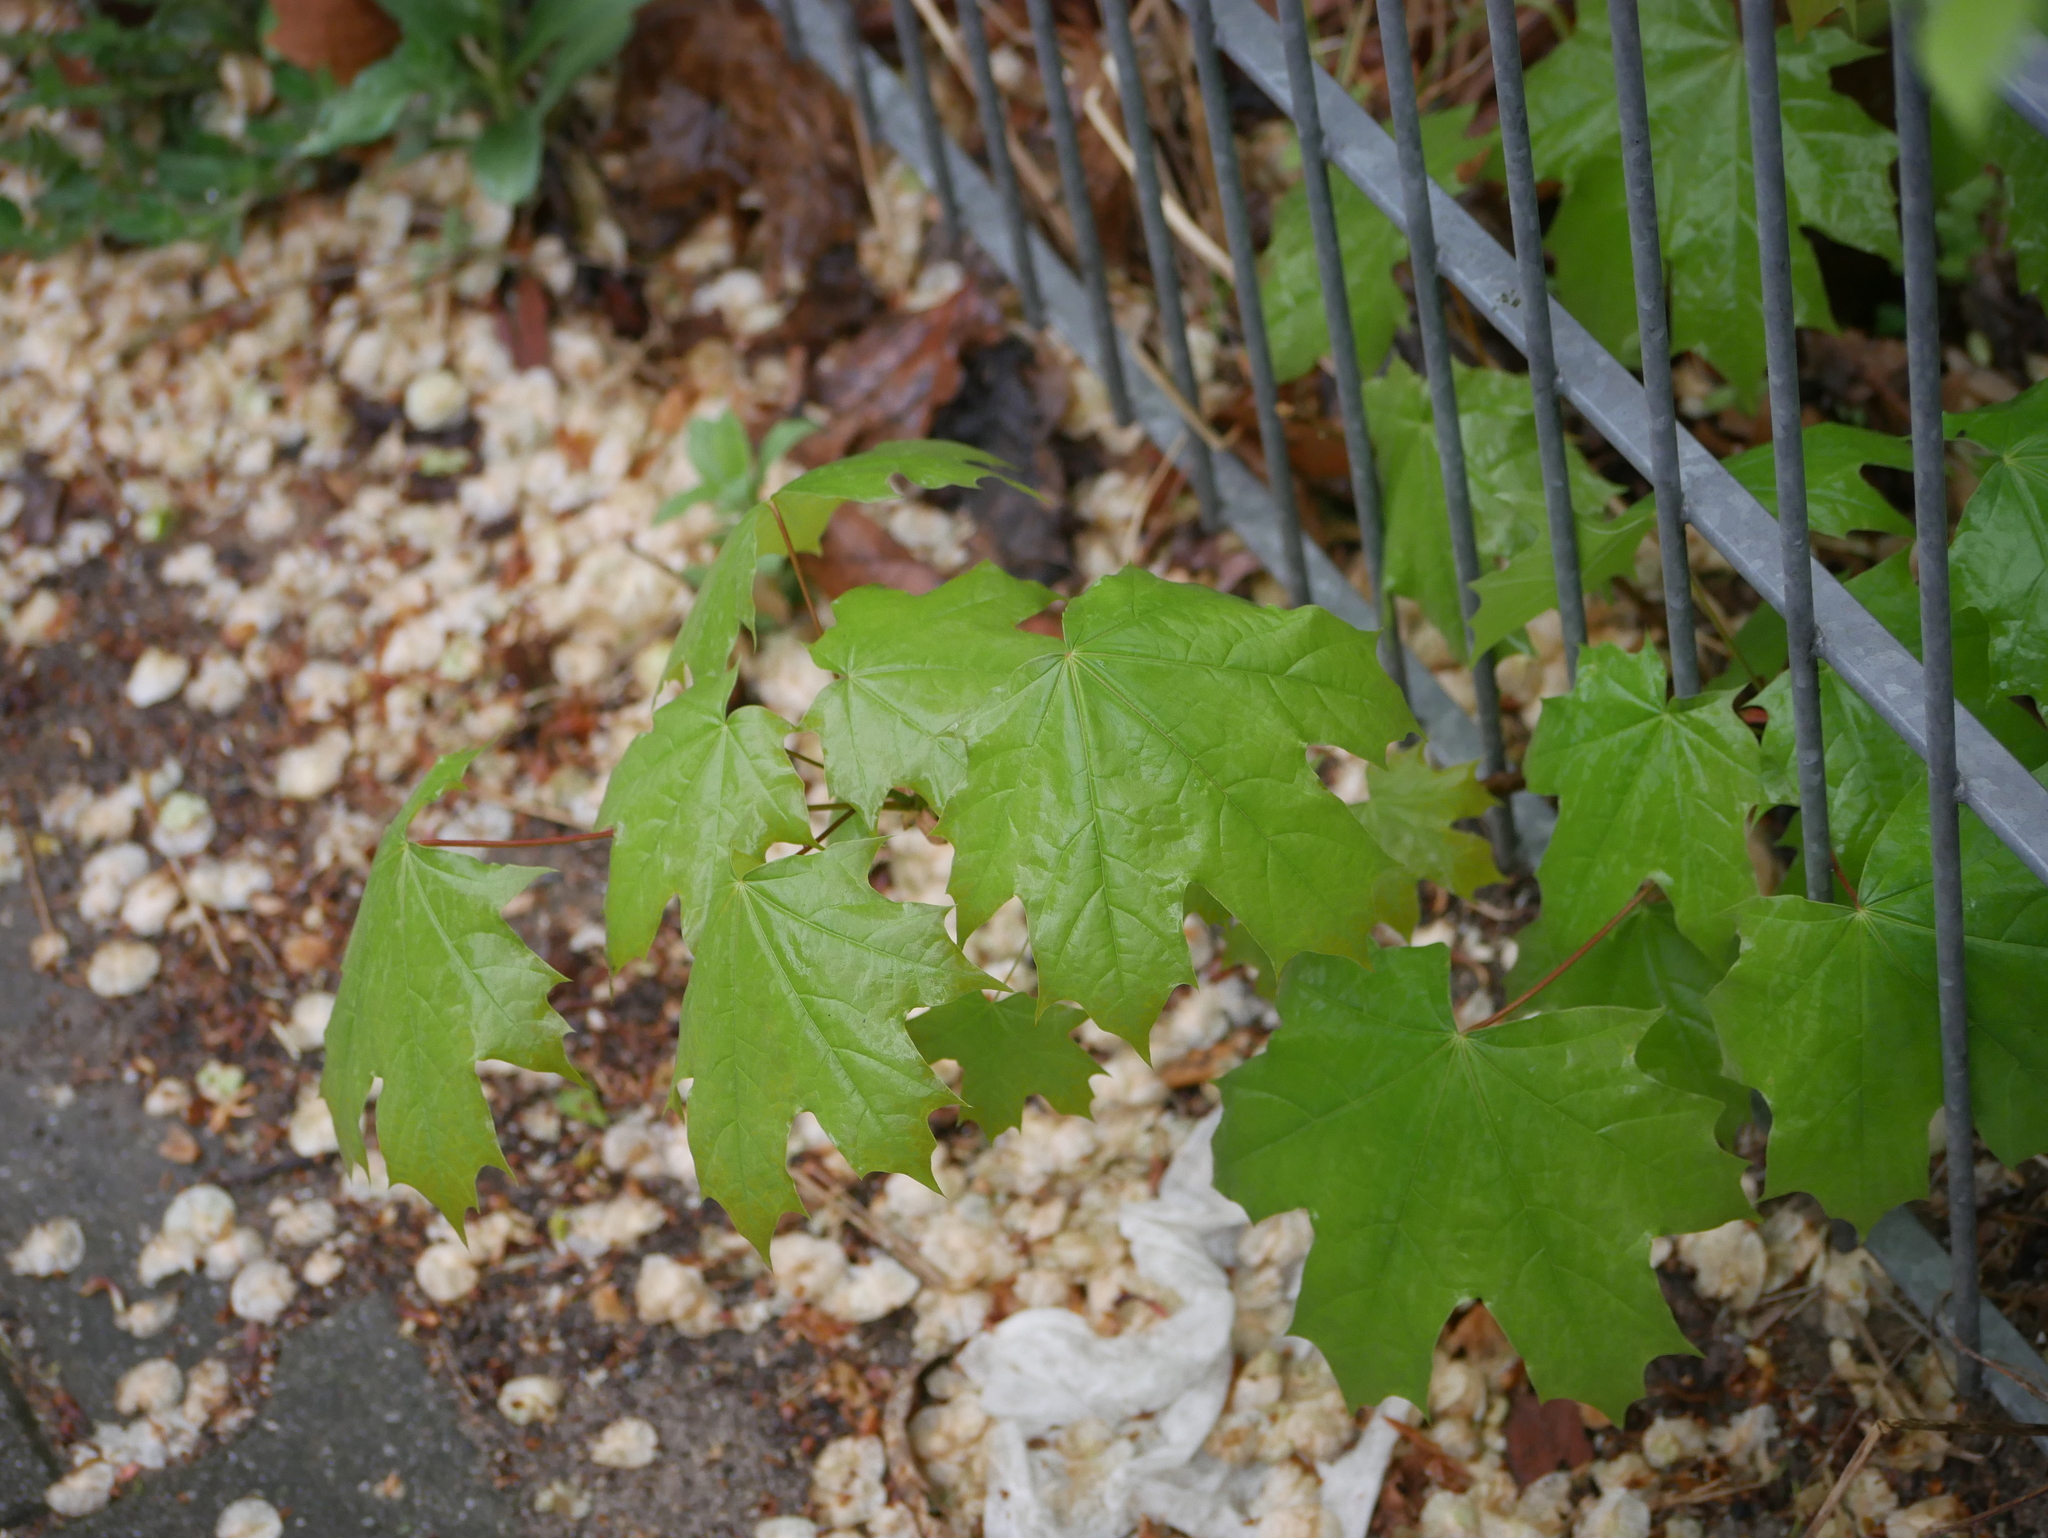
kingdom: Plantae
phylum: Tracheophyta
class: Magnoliopsida
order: Sapindales
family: Sapindaceae
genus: Acer
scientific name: Acer platanoides
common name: Norway maple
